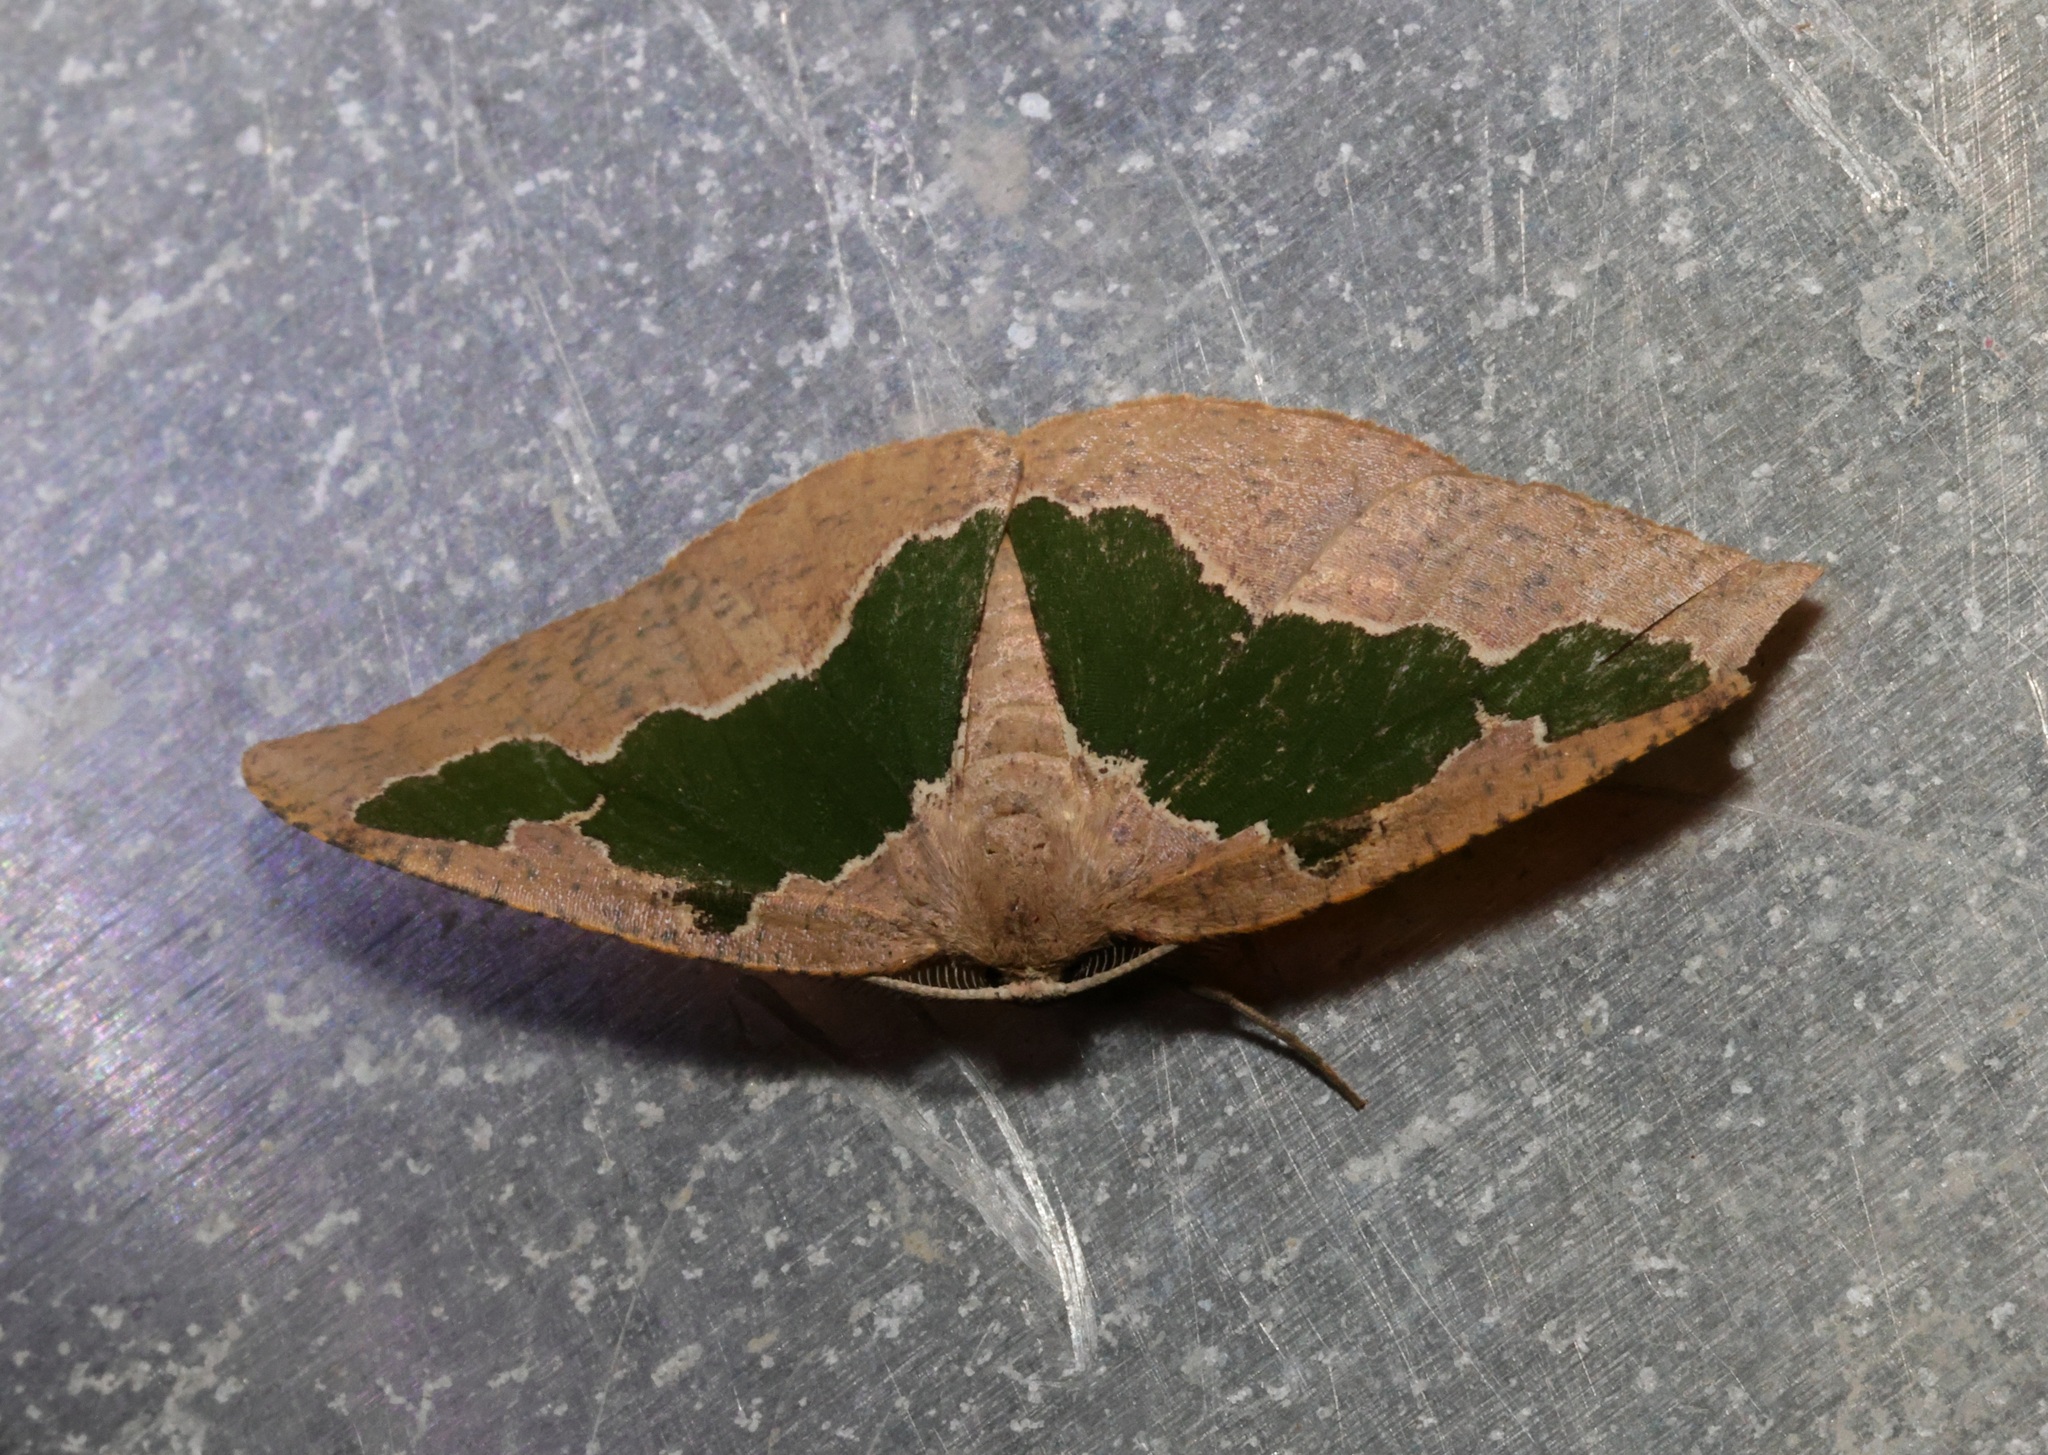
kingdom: Animalia
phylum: Arthropoda
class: Insecta
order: Lepidoptera
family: Geometridae
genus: Celenna
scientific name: Celenna festivaria
